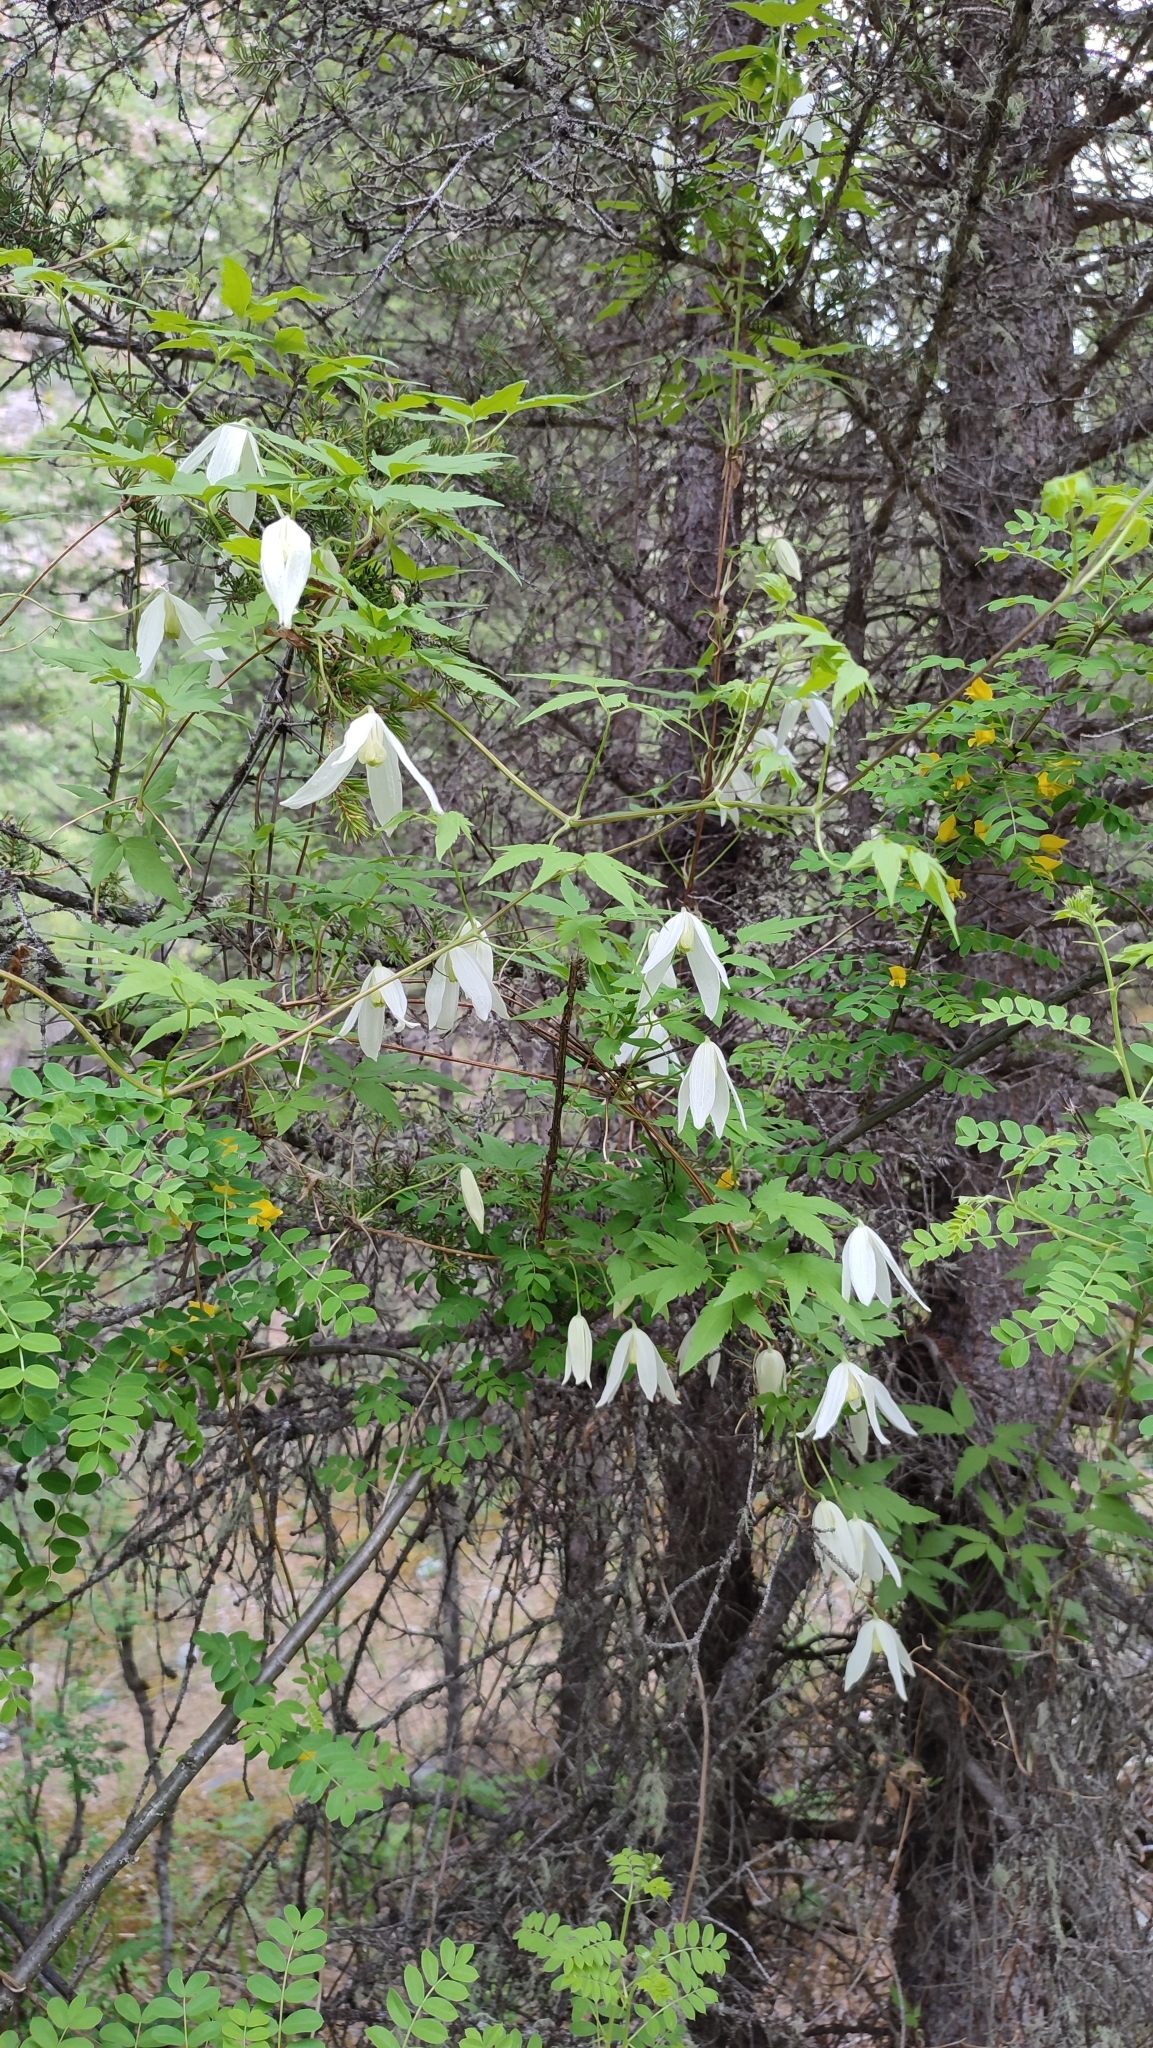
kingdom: Plantae
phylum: Tracheophyta
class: Magnoliopsida
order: Ranunculales
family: Ranunculaceae
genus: Clematis
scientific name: Clematis sibirica
